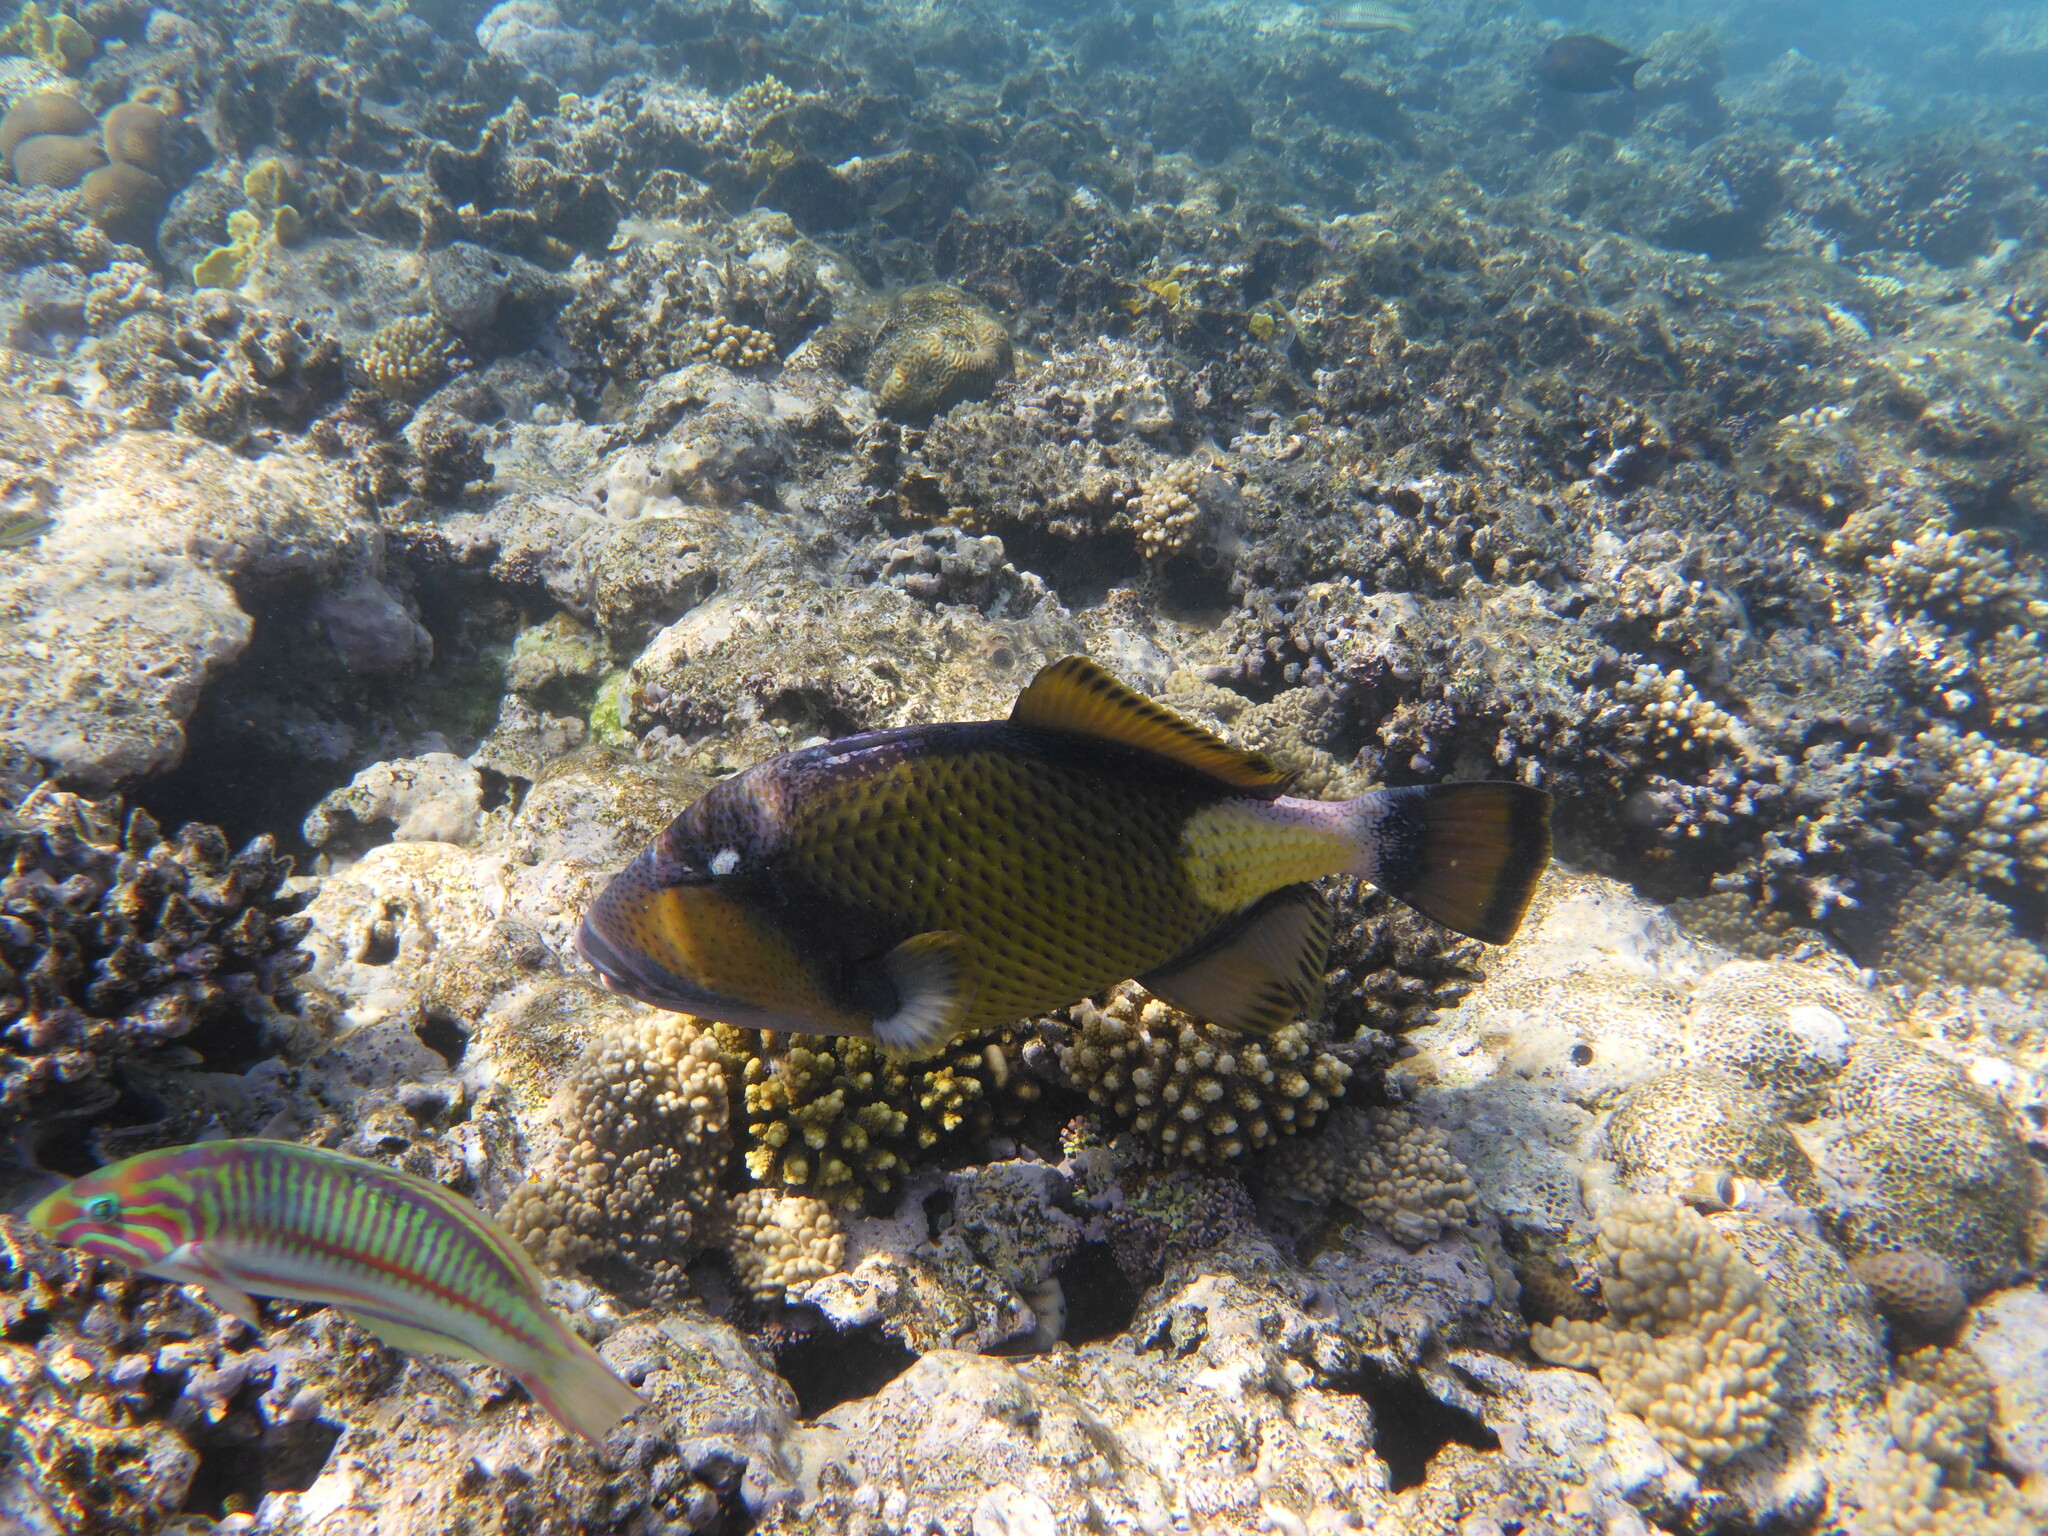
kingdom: Animalia
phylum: Chordata
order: Tetraodontiformes
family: Balistidae
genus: Balistoides
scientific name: Balistoides viridescens
